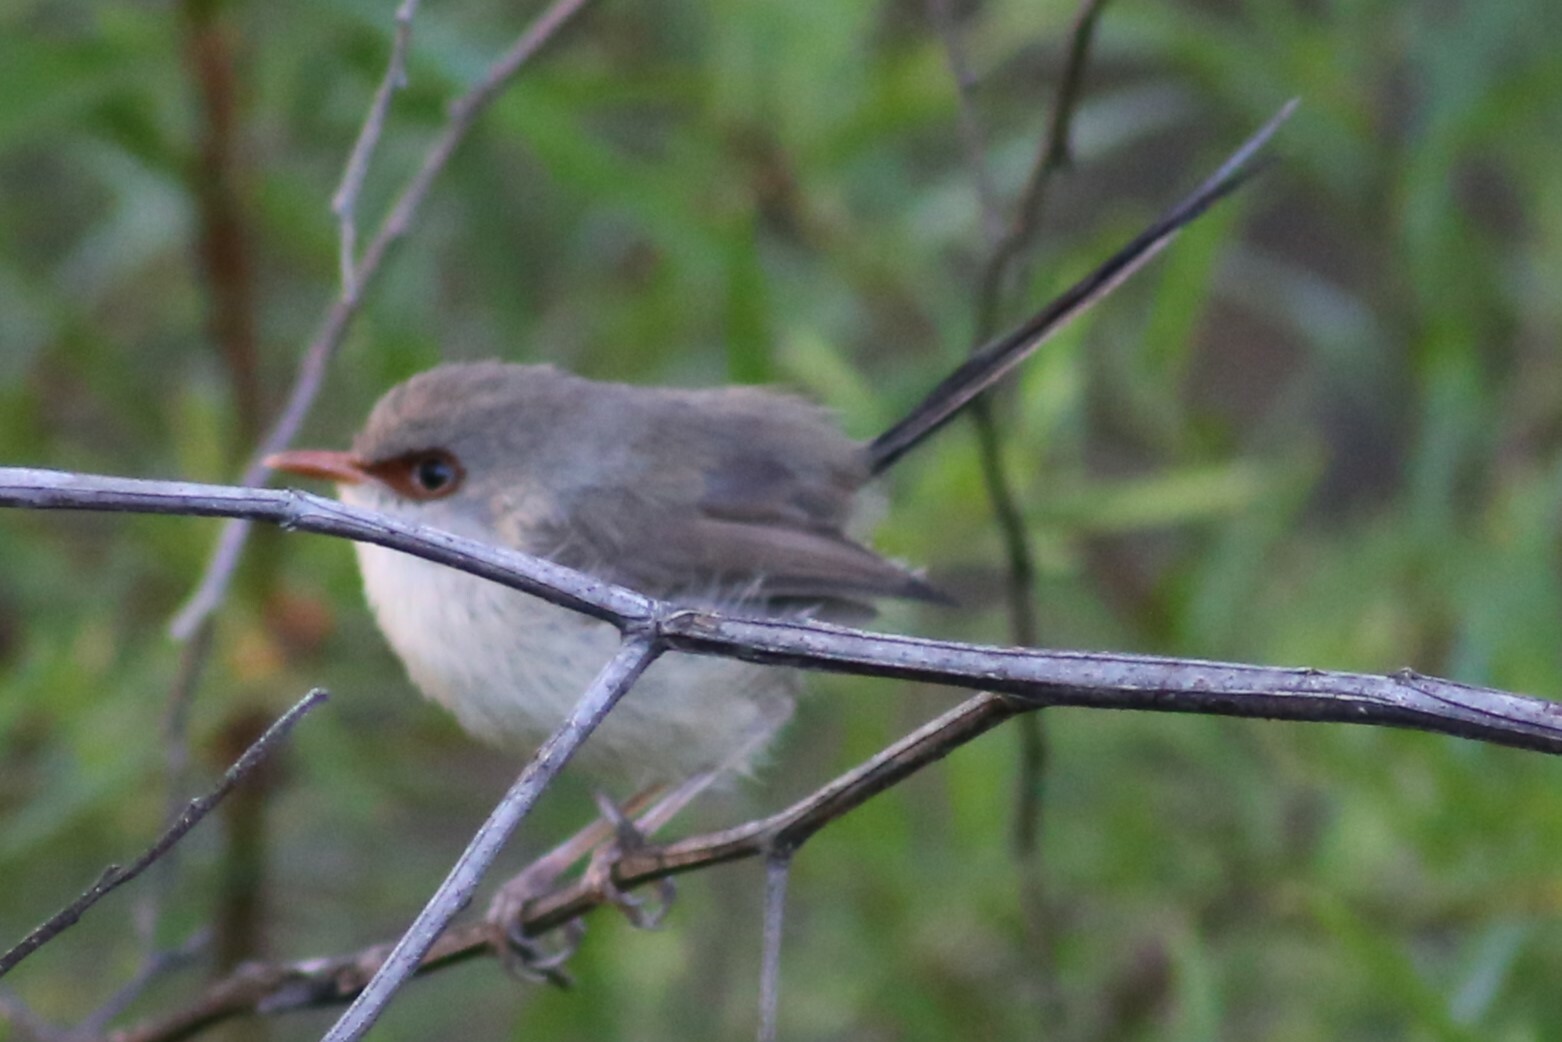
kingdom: Animalia
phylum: Chordata
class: Aves
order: Passeriformes
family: Maluridae
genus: Malurus
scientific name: Malurus lamberti
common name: Variegated fairywren
